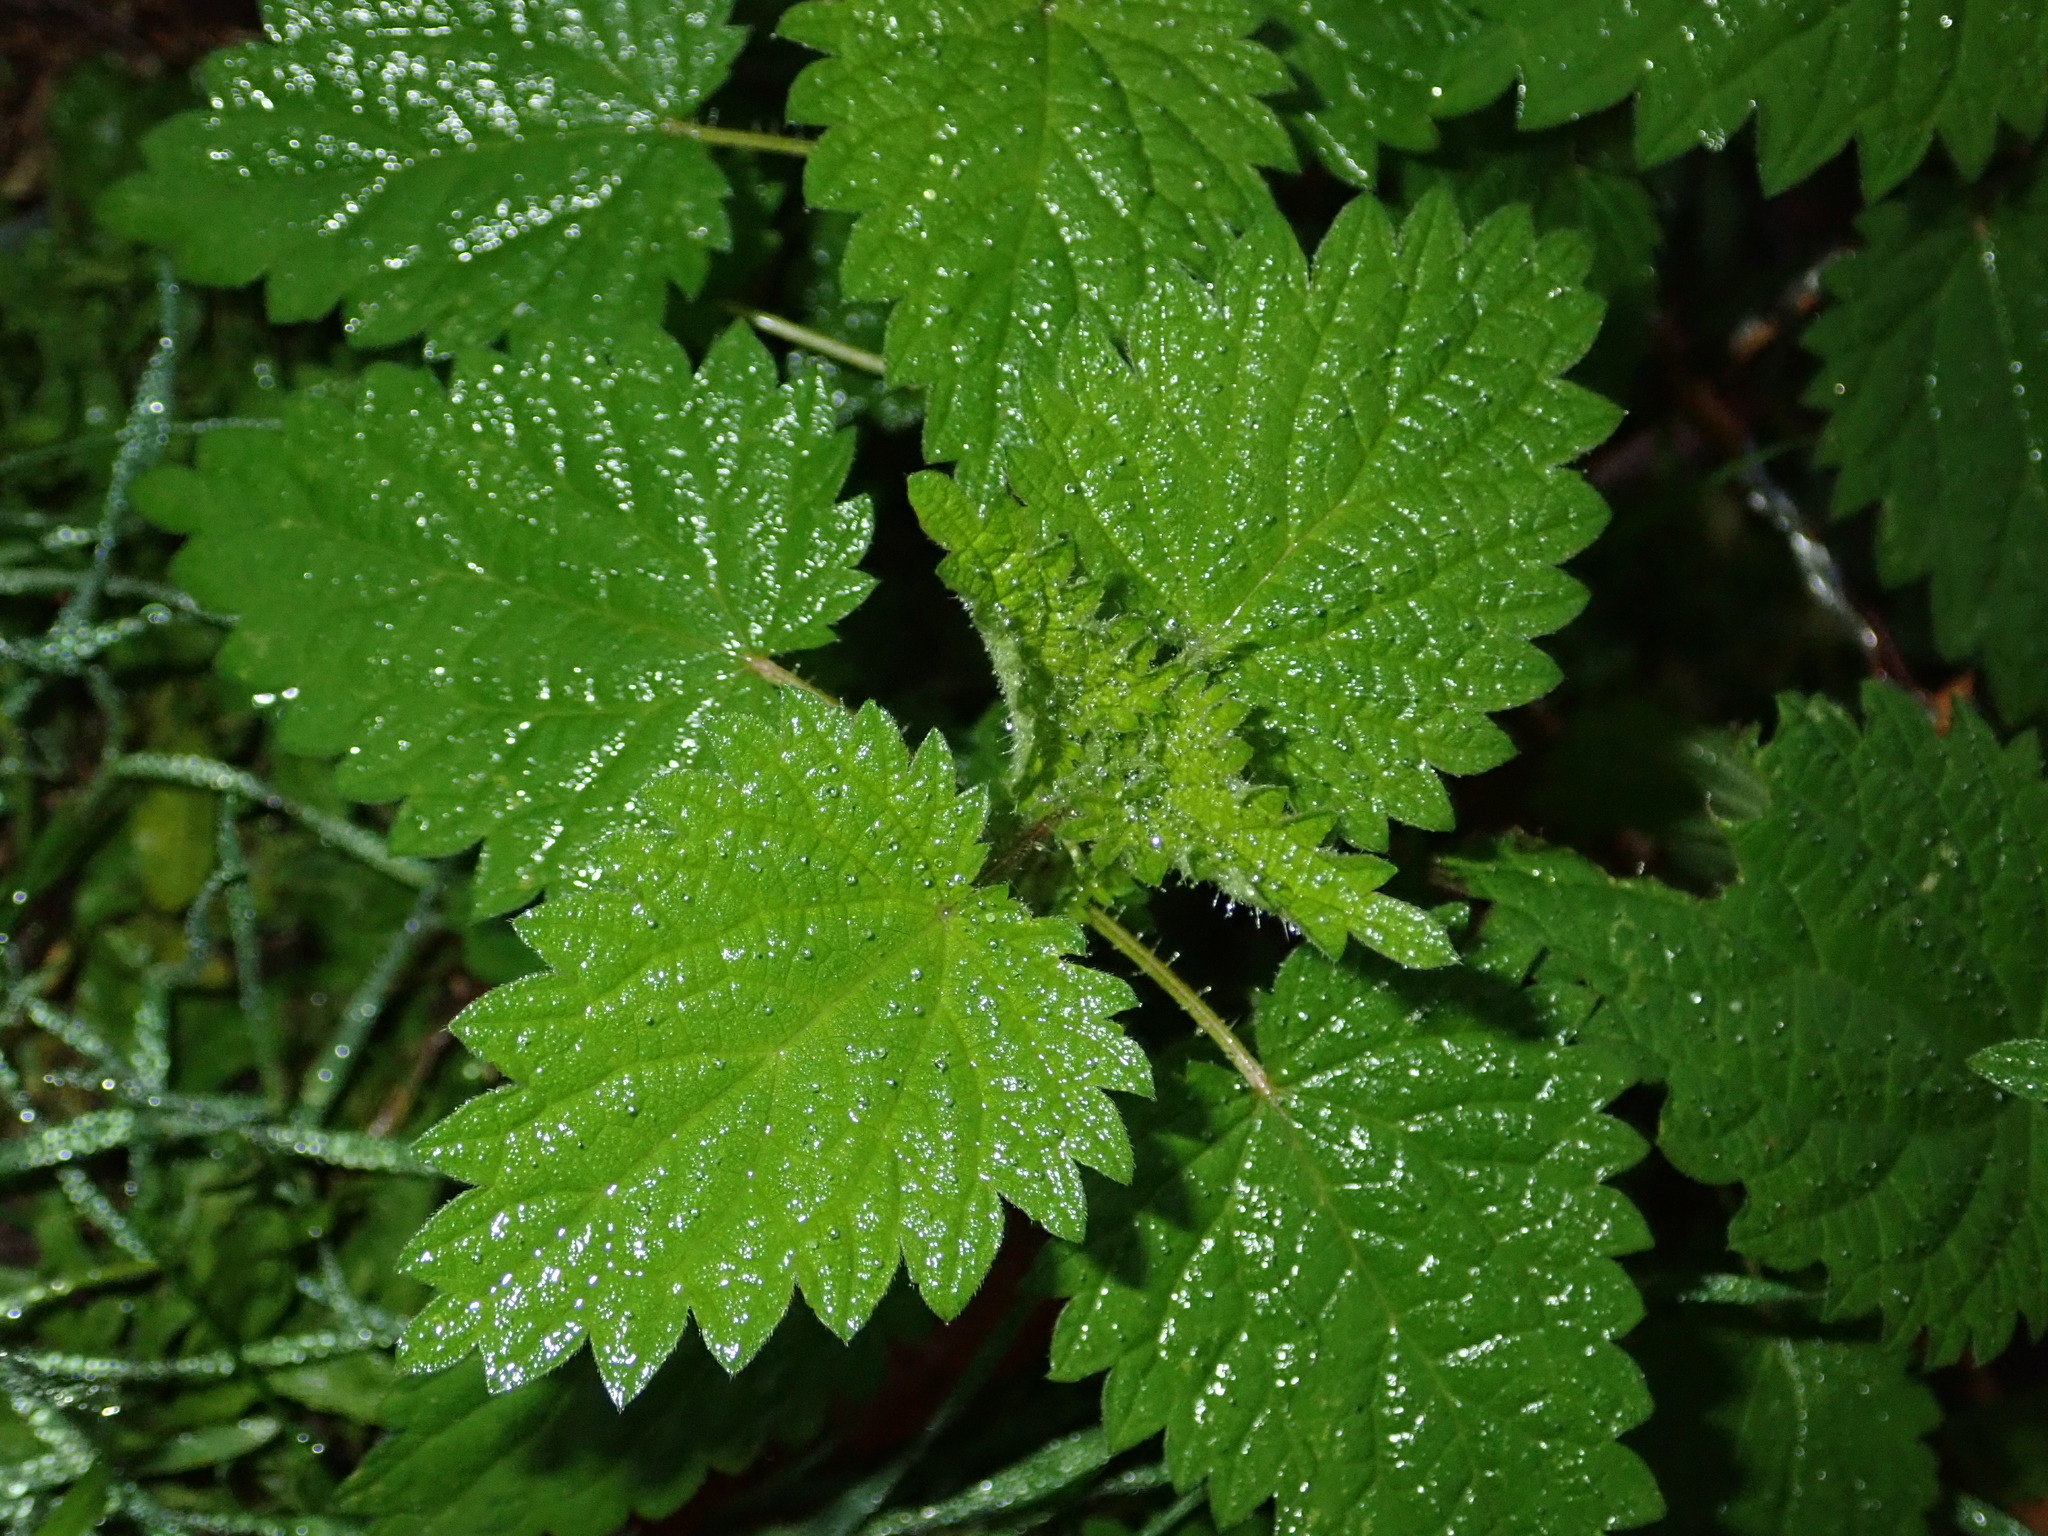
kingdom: Plantae
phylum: Tracheophyta
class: Magnoliopsida
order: Rosales
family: Urticaceae
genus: Urtica
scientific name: Urtica dioica
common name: Common nettle
